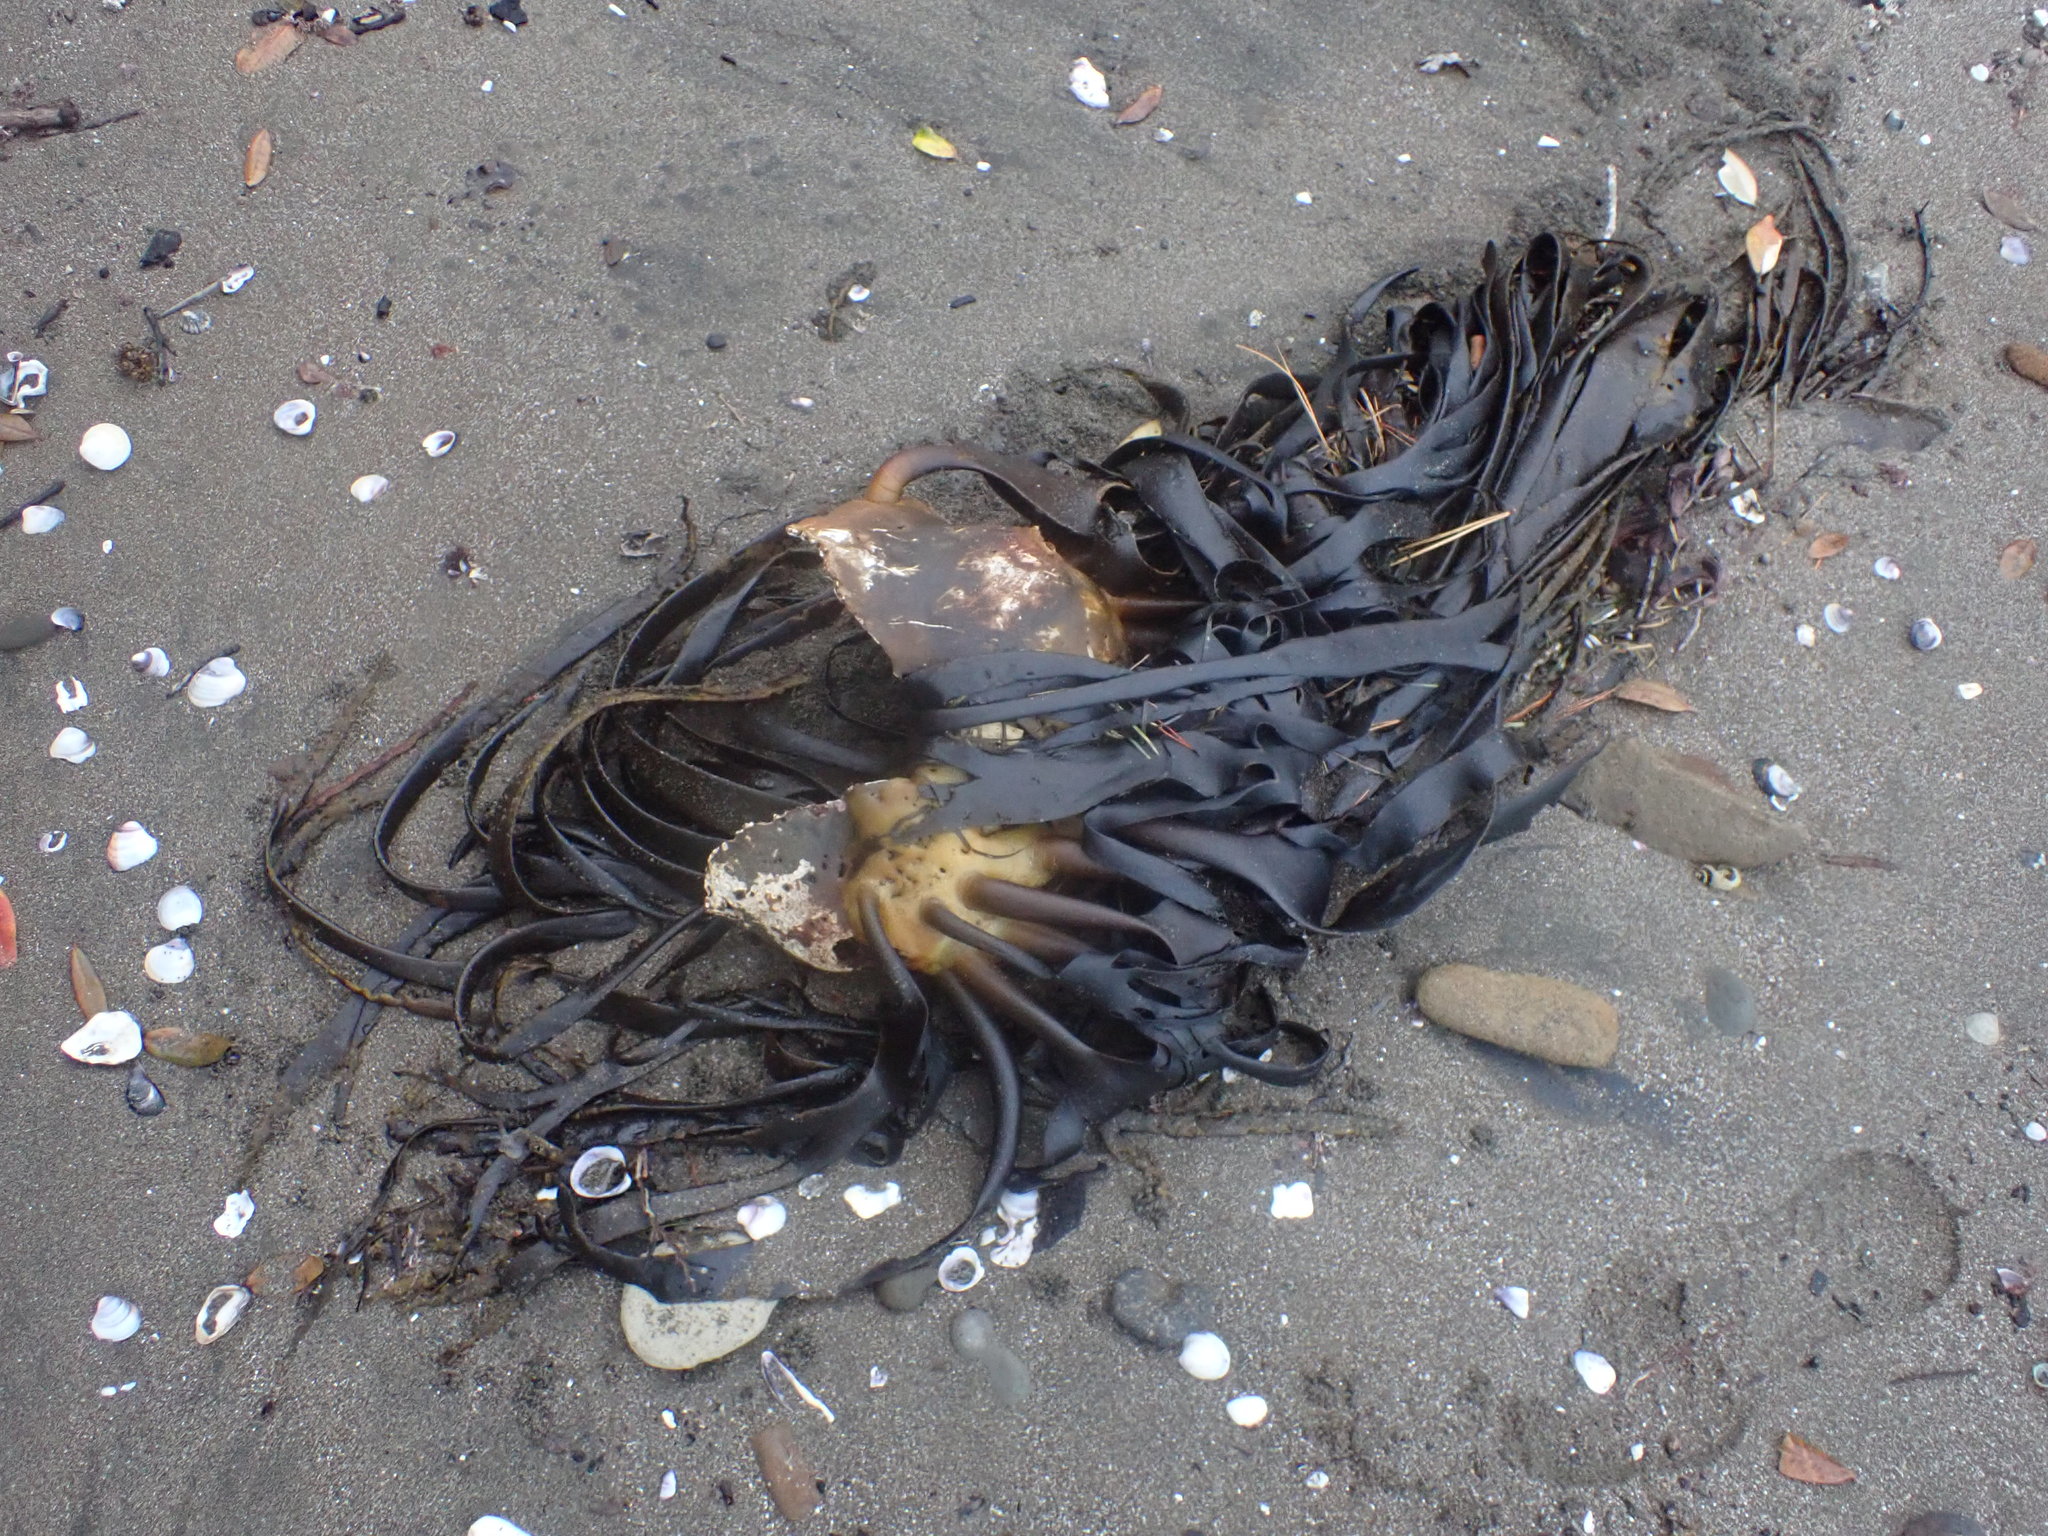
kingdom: Chromista
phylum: Ochrophyta
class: Phaeophyceae
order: Fucales
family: Durvillaeaceae
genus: Durvillaea
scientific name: Durvillaea antarctica
